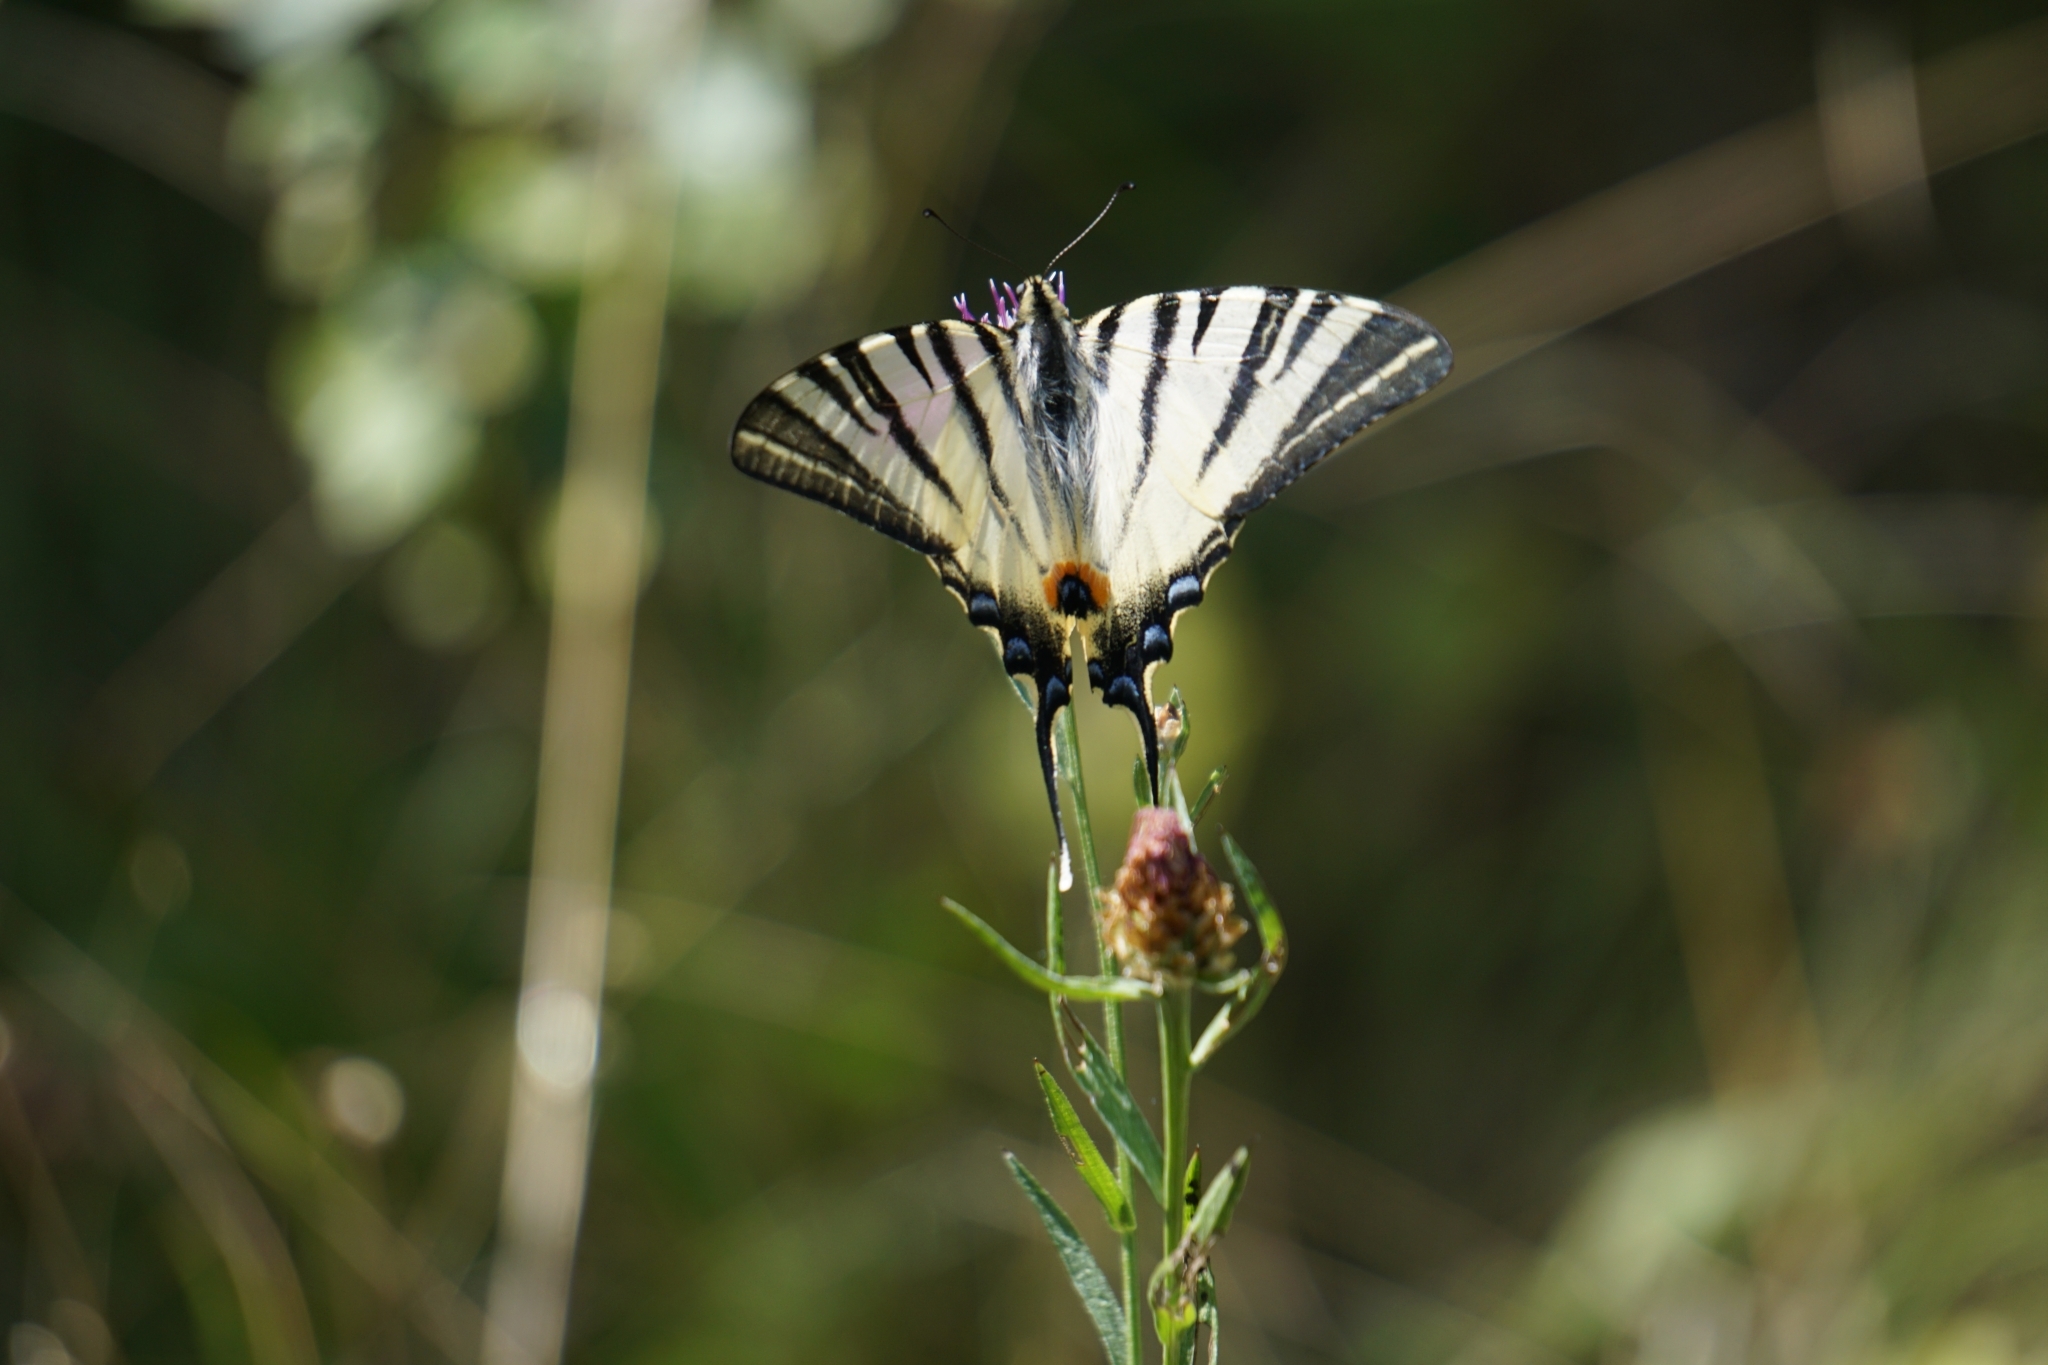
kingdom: Animalia
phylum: Arthropoda
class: Insecta
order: Lepidoptera
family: Papilionidae
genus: Iphiclides
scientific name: Iphiclides podalirius
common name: Scarce swallowtail
